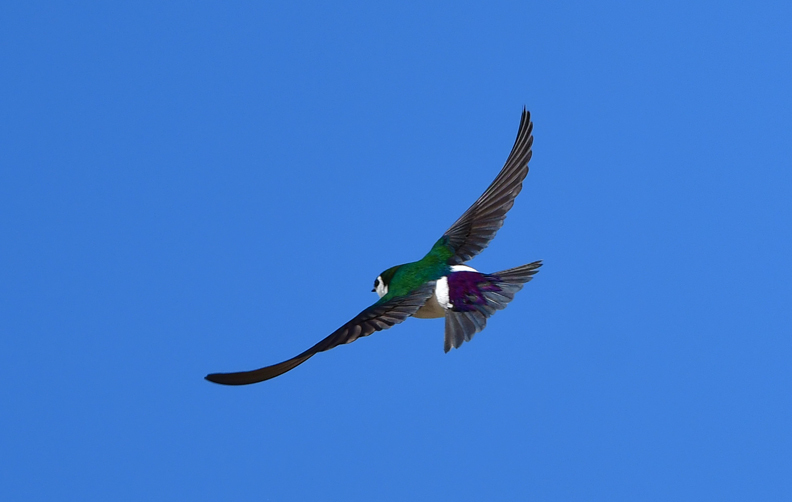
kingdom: Animalia
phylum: Chordata
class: Aves
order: Passeriformes
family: Hirundinidae
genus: Tachycineta
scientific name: Tachycineta thalassina
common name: Violet-green swallow
